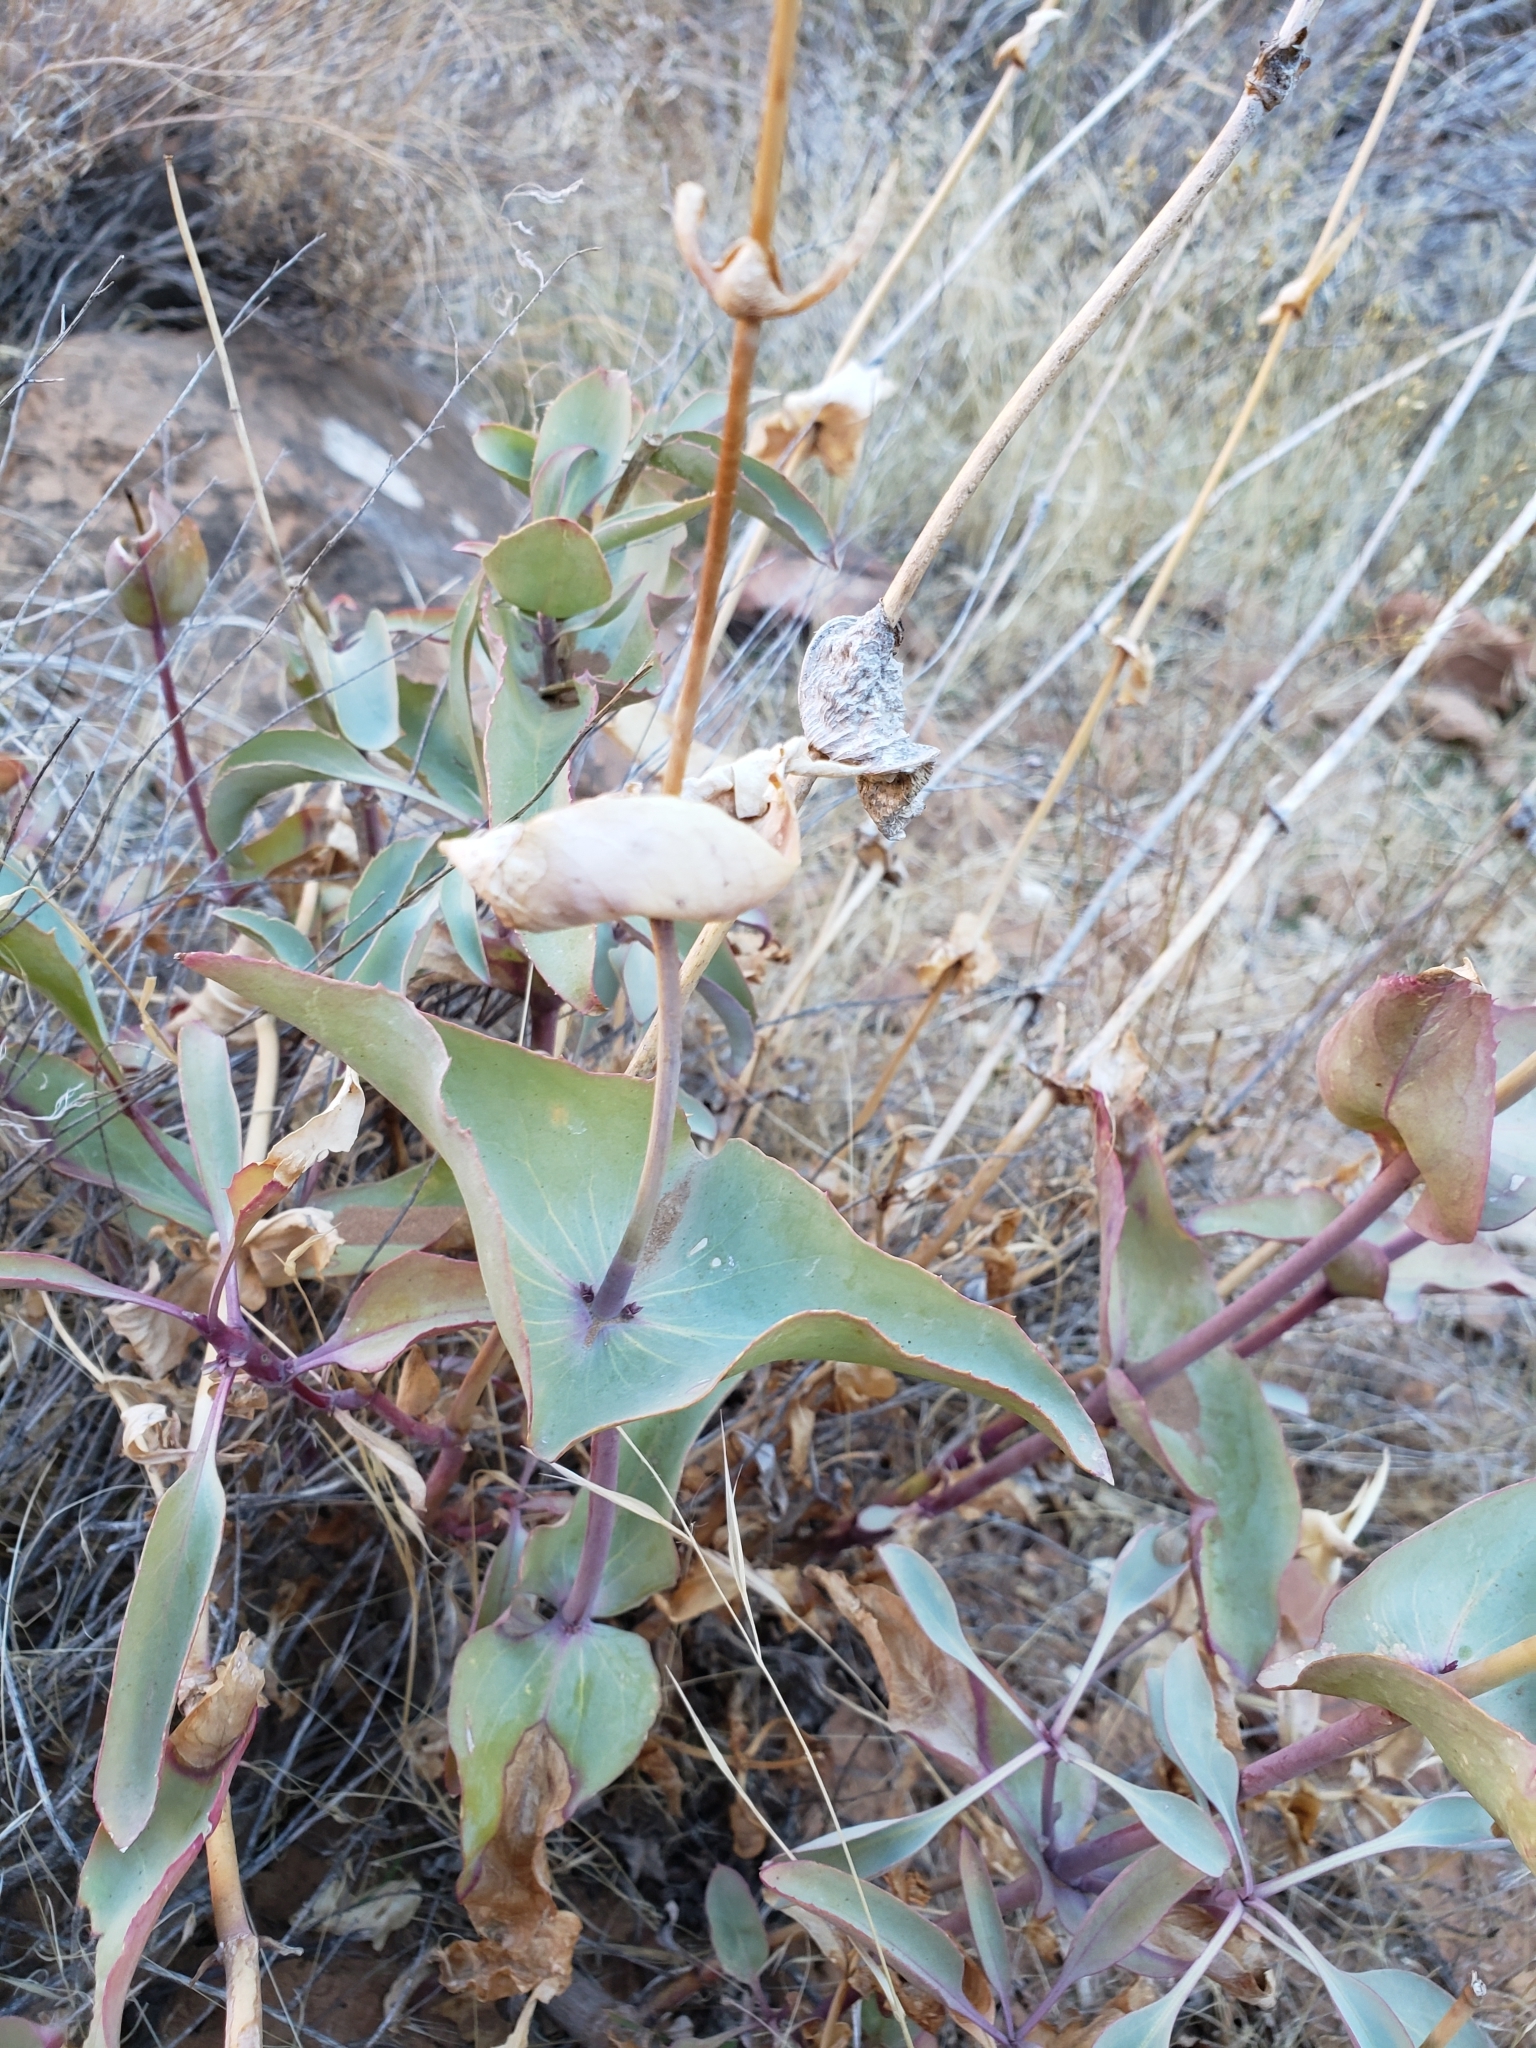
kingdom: Plantae
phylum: Tracheophyta
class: Magnoliopsida
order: Lamiales
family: Plantaginaceae
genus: Penstemon
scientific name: Penstemon palmeri
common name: Palmer penstemon
